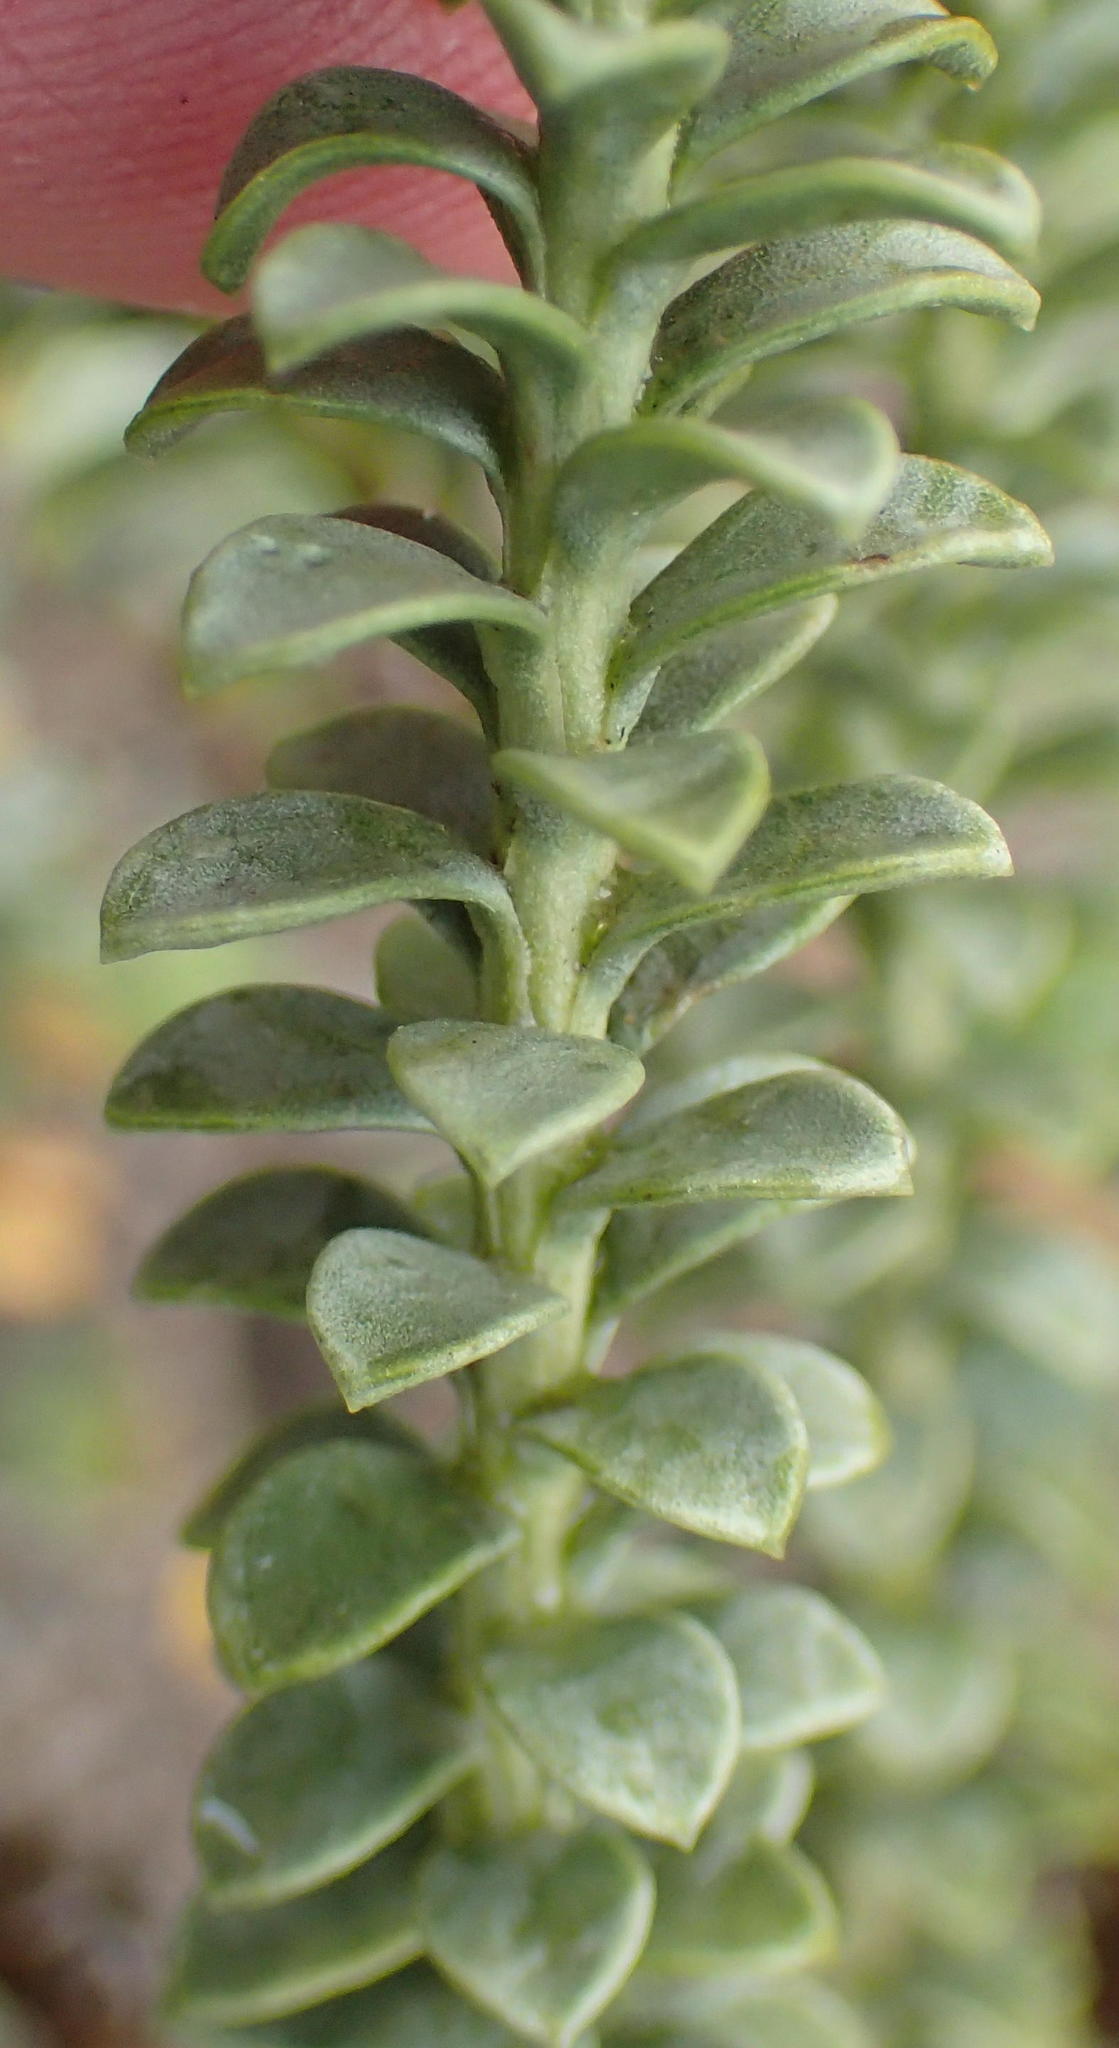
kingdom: Plantae
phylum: Tracheophyta
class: Magnoliopsida
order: Asterales
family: Asteraceae
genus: Oedera
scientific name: Oedera squarrosa
